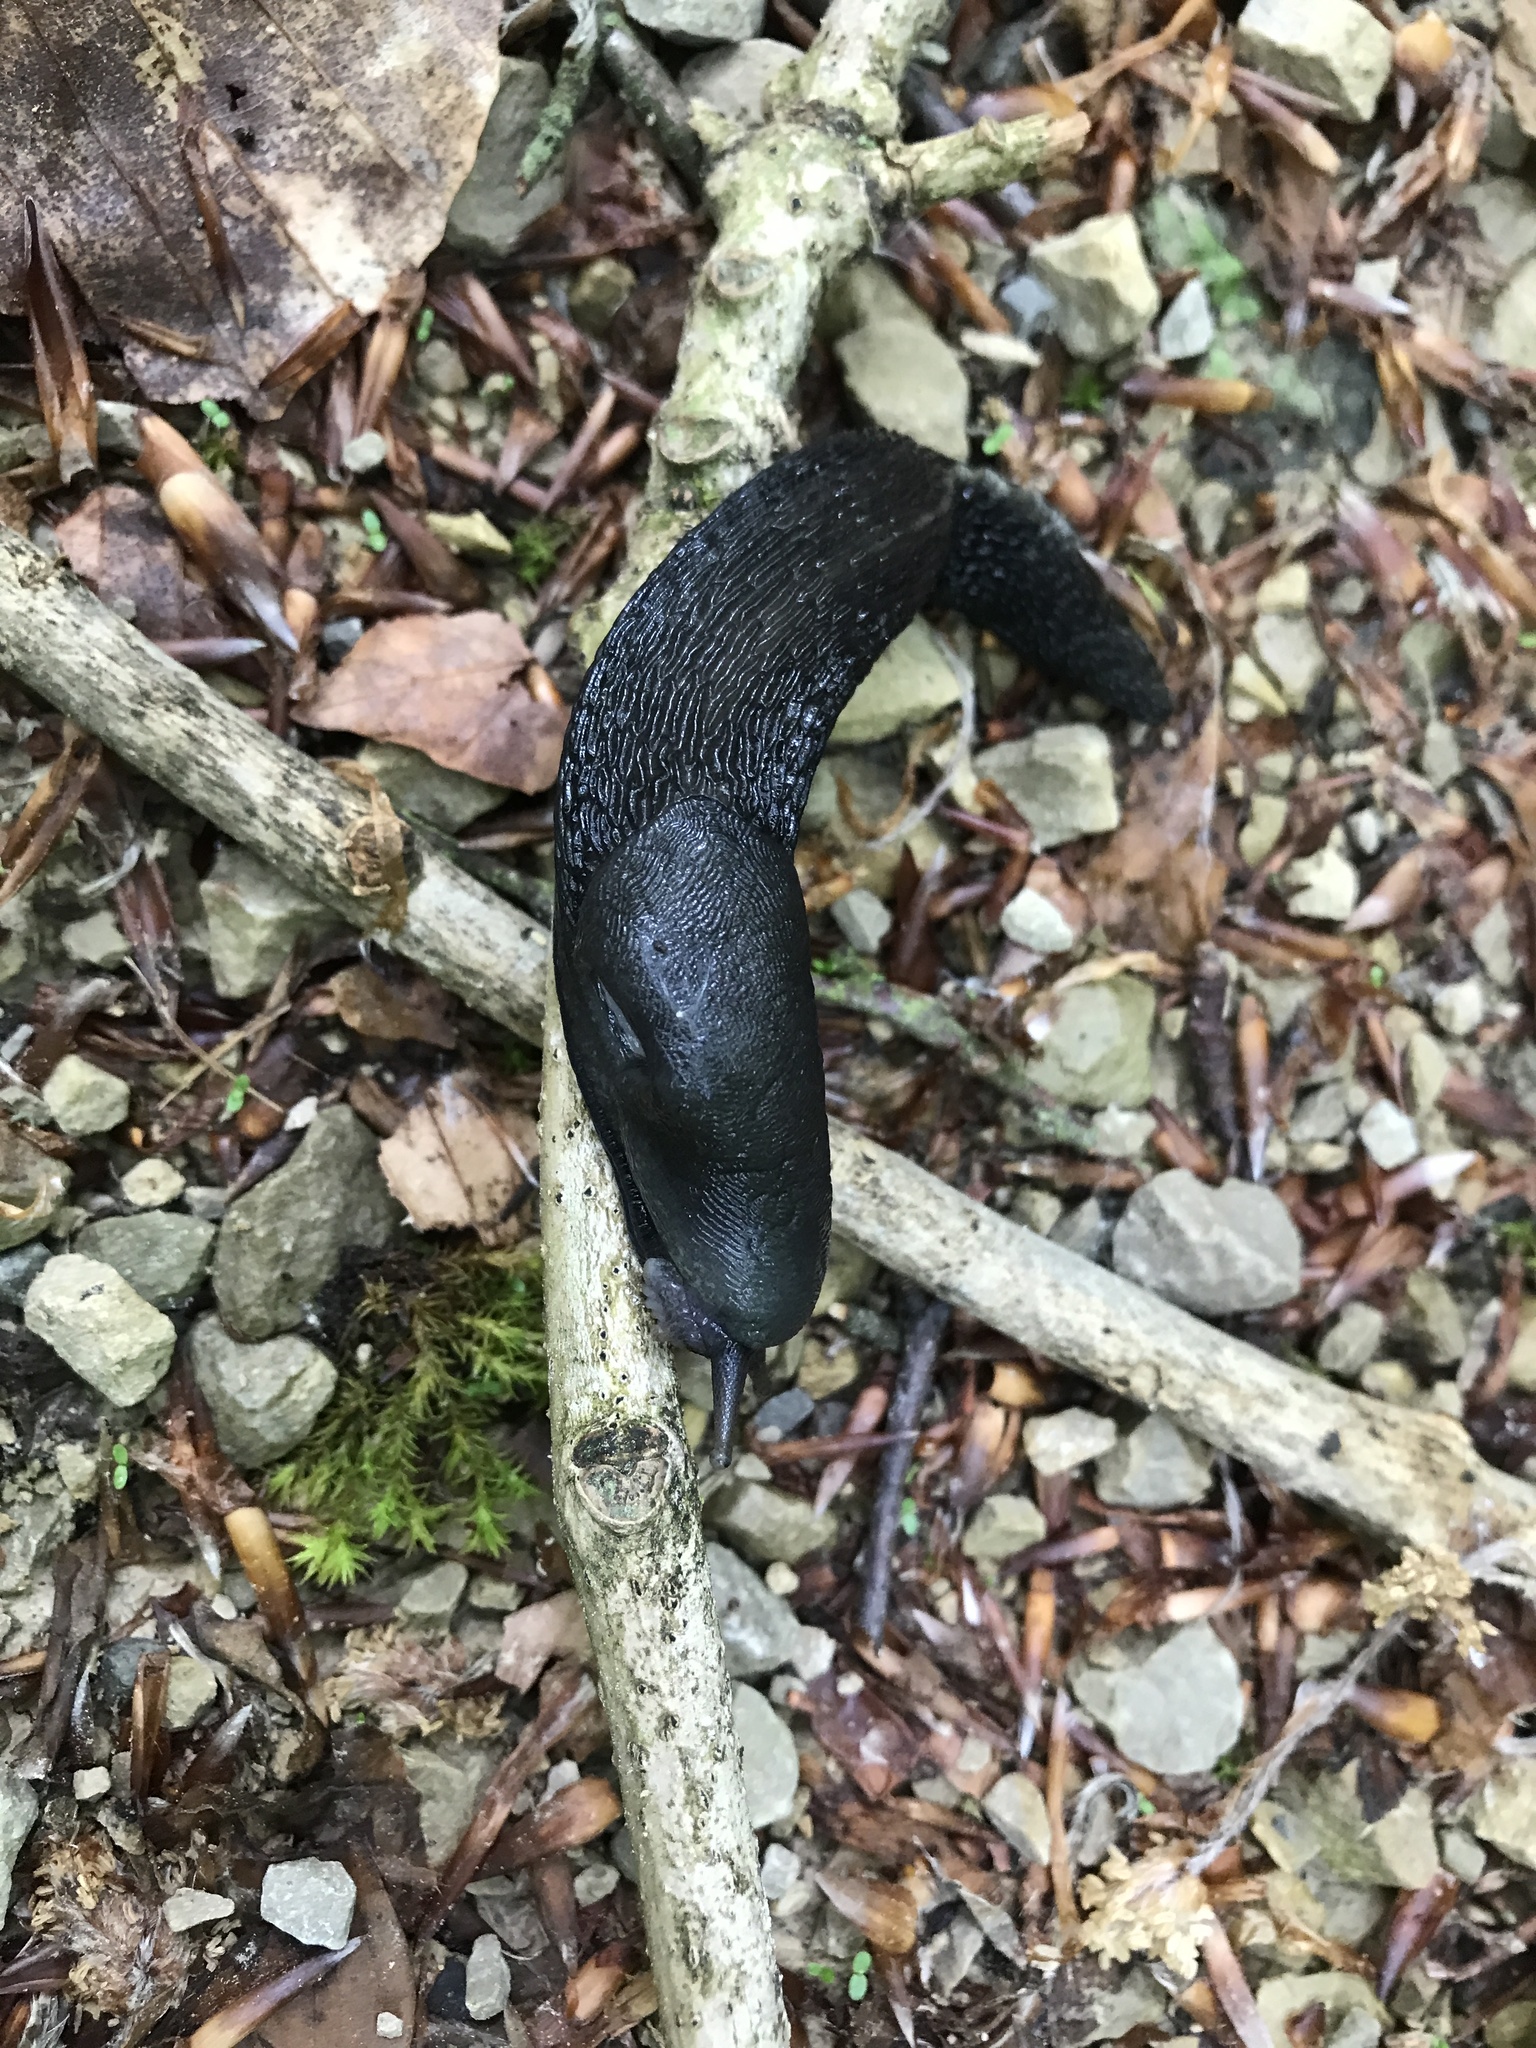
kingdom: Animalia
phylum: Mollusca
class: Gastropoda
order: Stylommatophora
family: Limacidae
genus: Limax
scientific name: Limax cinereoniger
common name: Ash-black slug
